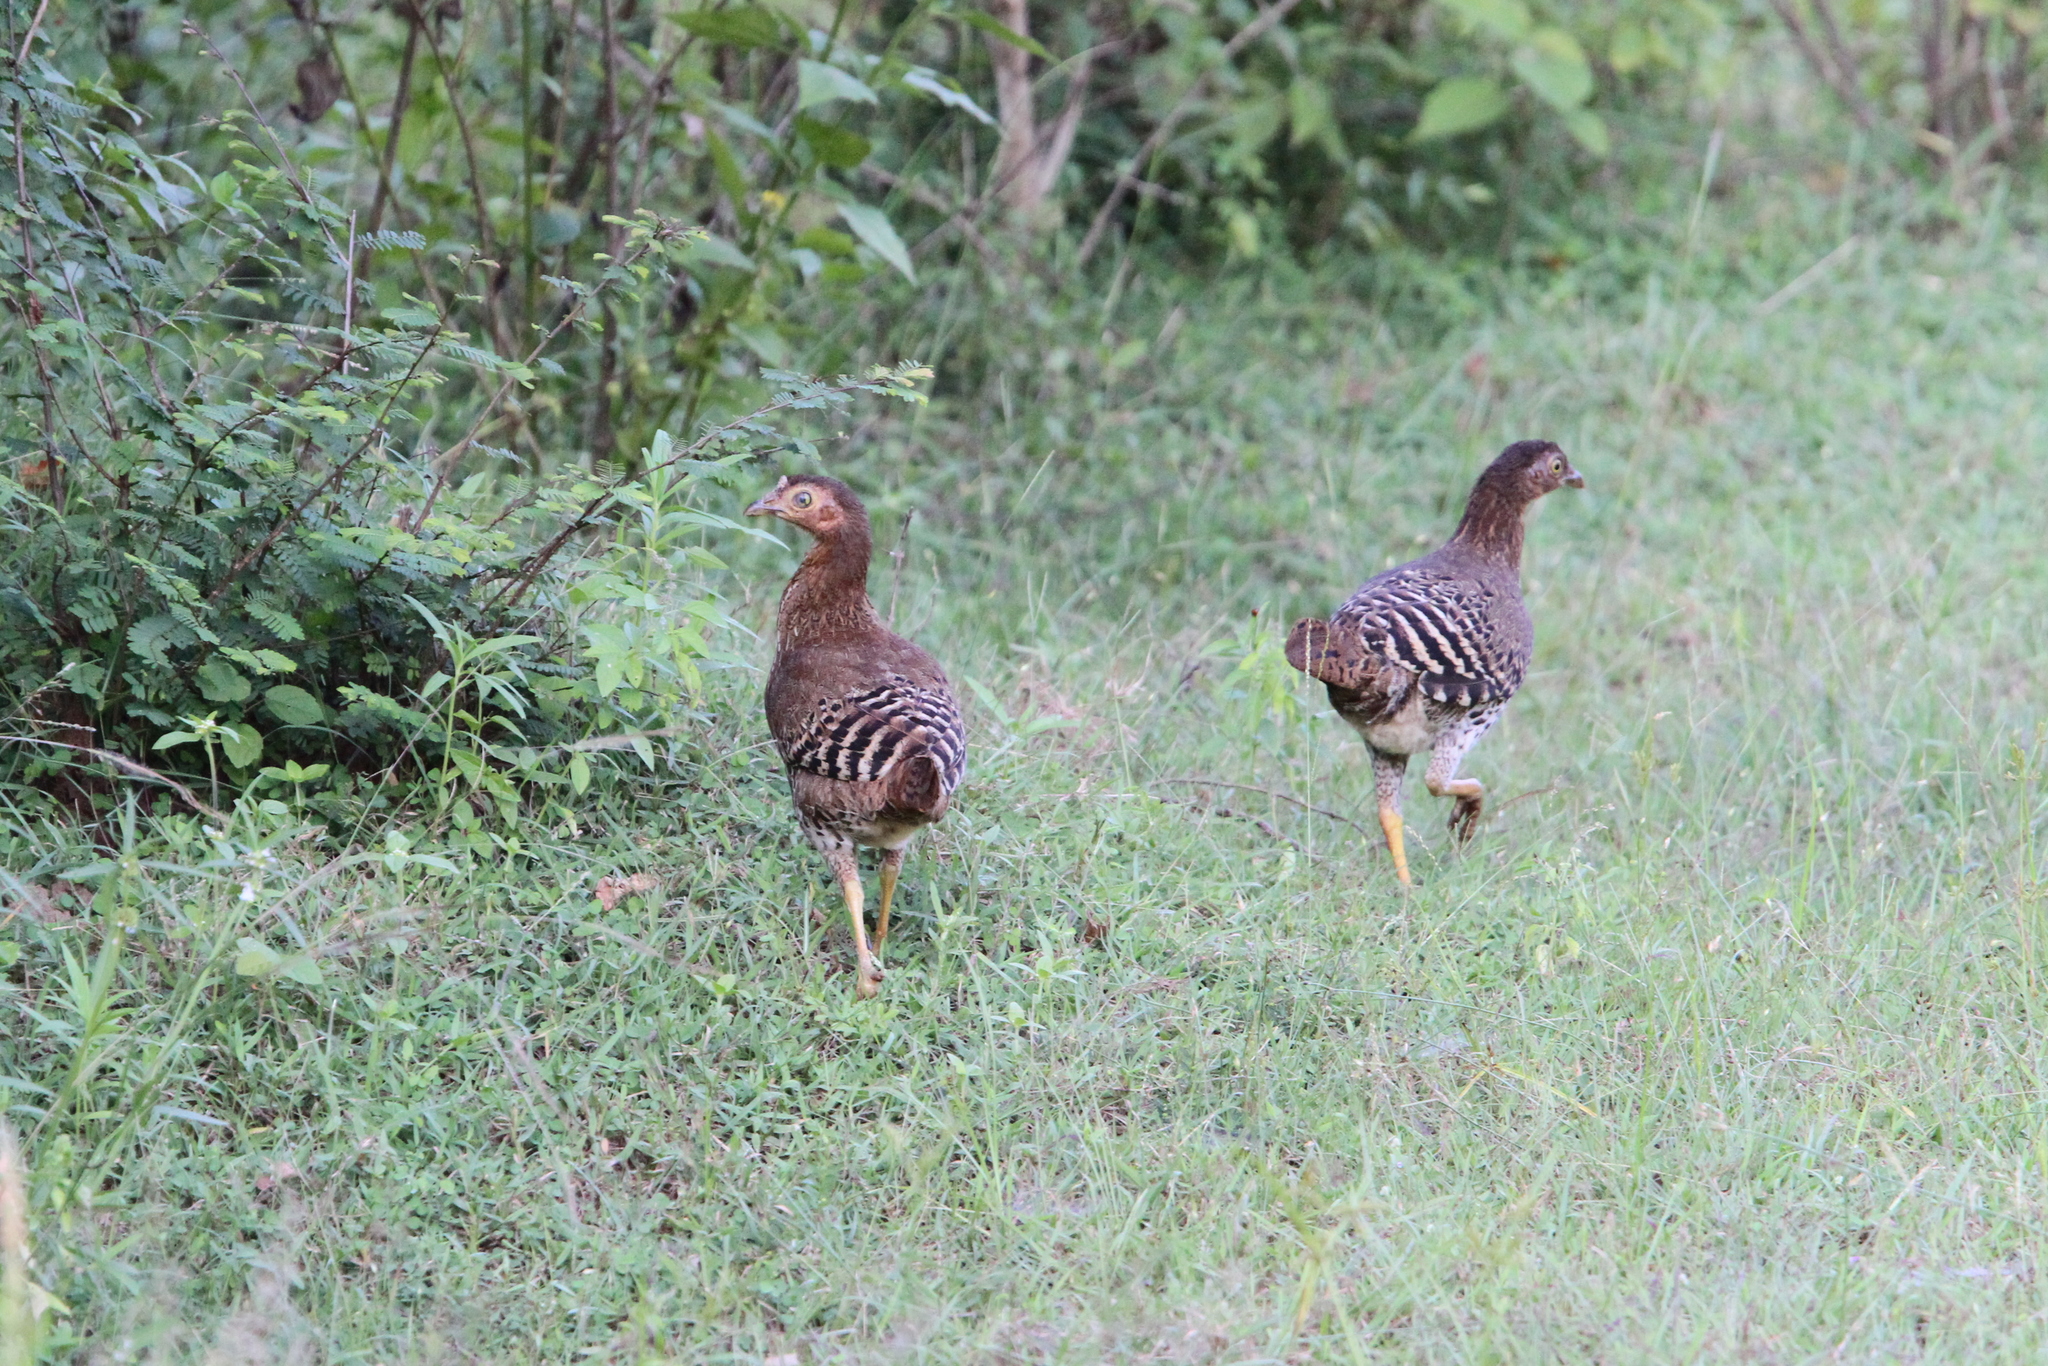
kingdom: Animalia
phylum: Chordata
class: Aves
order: Galliformes
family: Phasianidae
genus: Gallus
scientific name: Gallus lafayettii
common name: Sri lanka junglefowl
